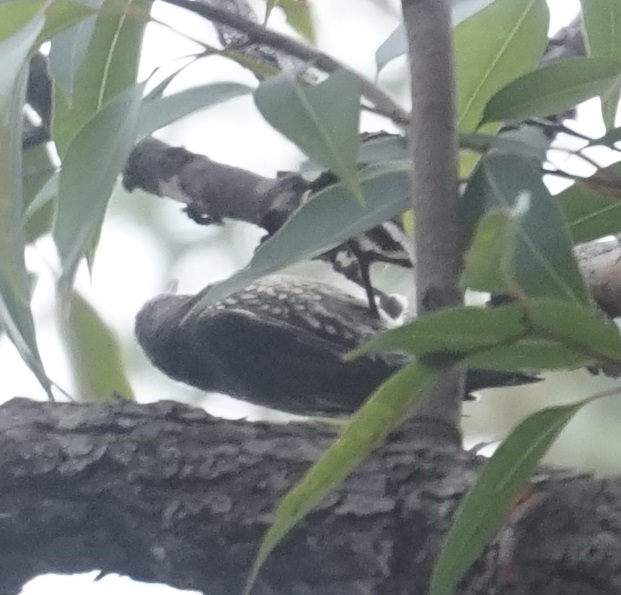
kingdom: Animalia
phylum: Chordata
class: Aves
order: Passeriformes
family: Climacteridae
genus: Cormobates
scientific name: Cormobates leucophaea
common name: White-throated treecreeper
